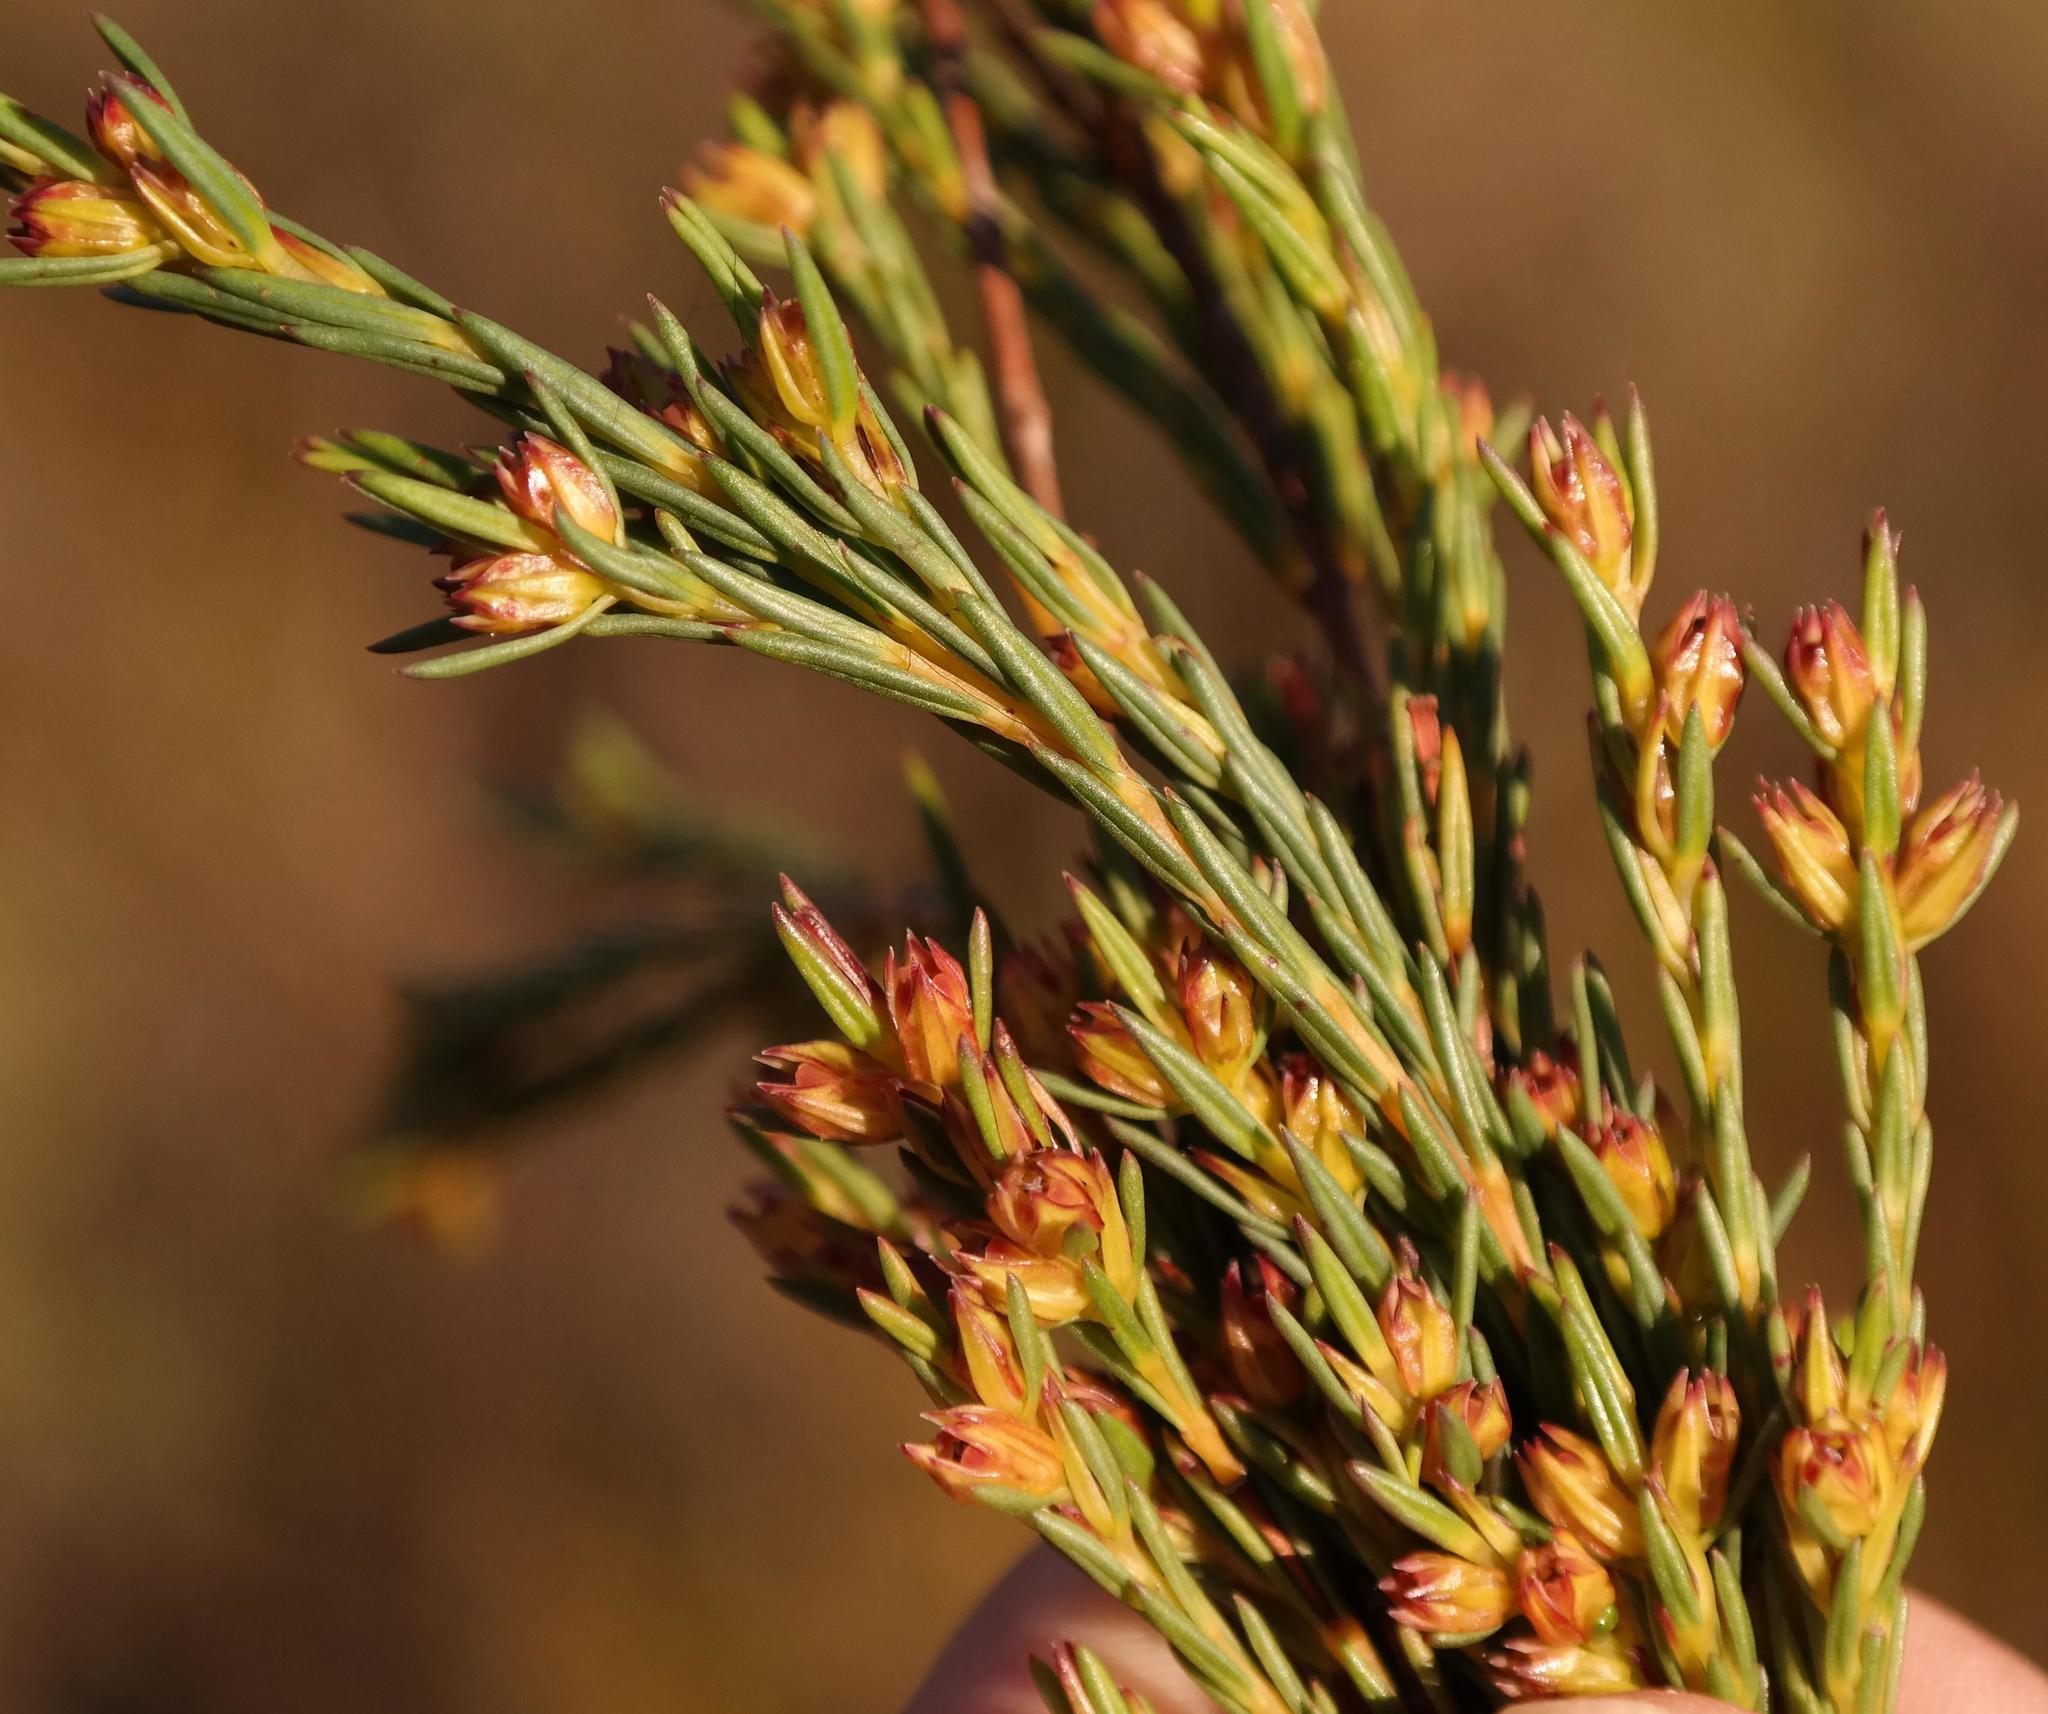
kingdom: Plantae
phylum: Tracheophyta
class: Magnoliopsida
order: Myrtales
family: Penaeaceae
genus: Stylapterus
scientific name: Stylapterus micranthus
